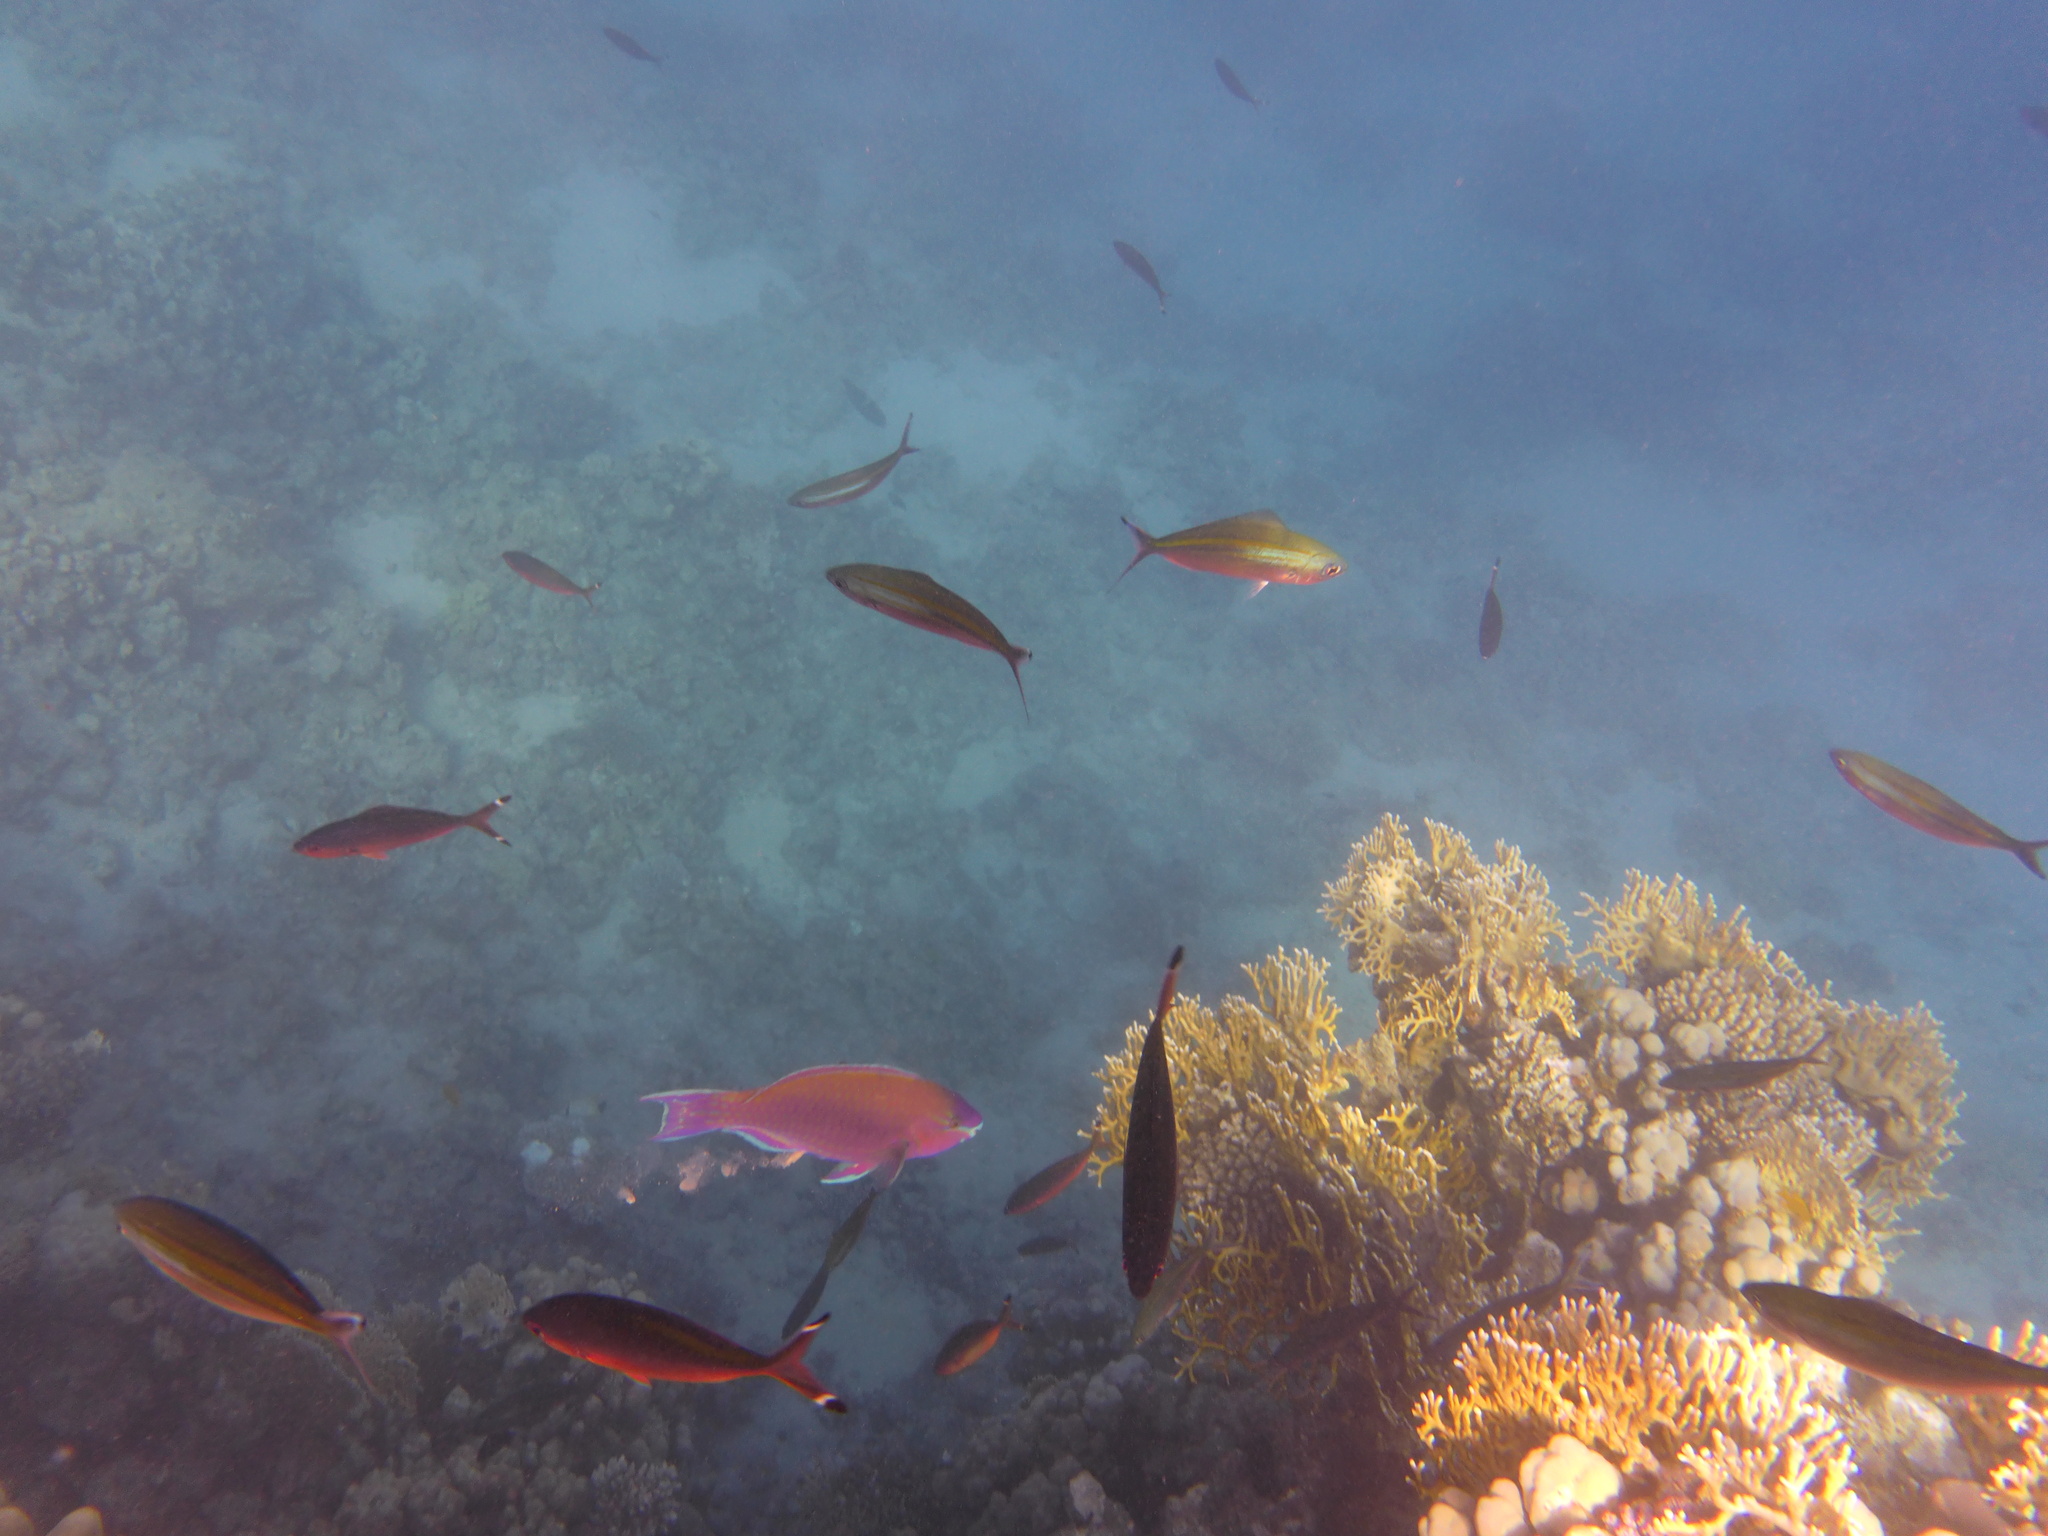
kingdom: Animalia
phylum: Chordata
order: Perciformes
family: Caesionidae
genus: Caesio
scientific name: Caesio suevica
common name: Suez fusilier
